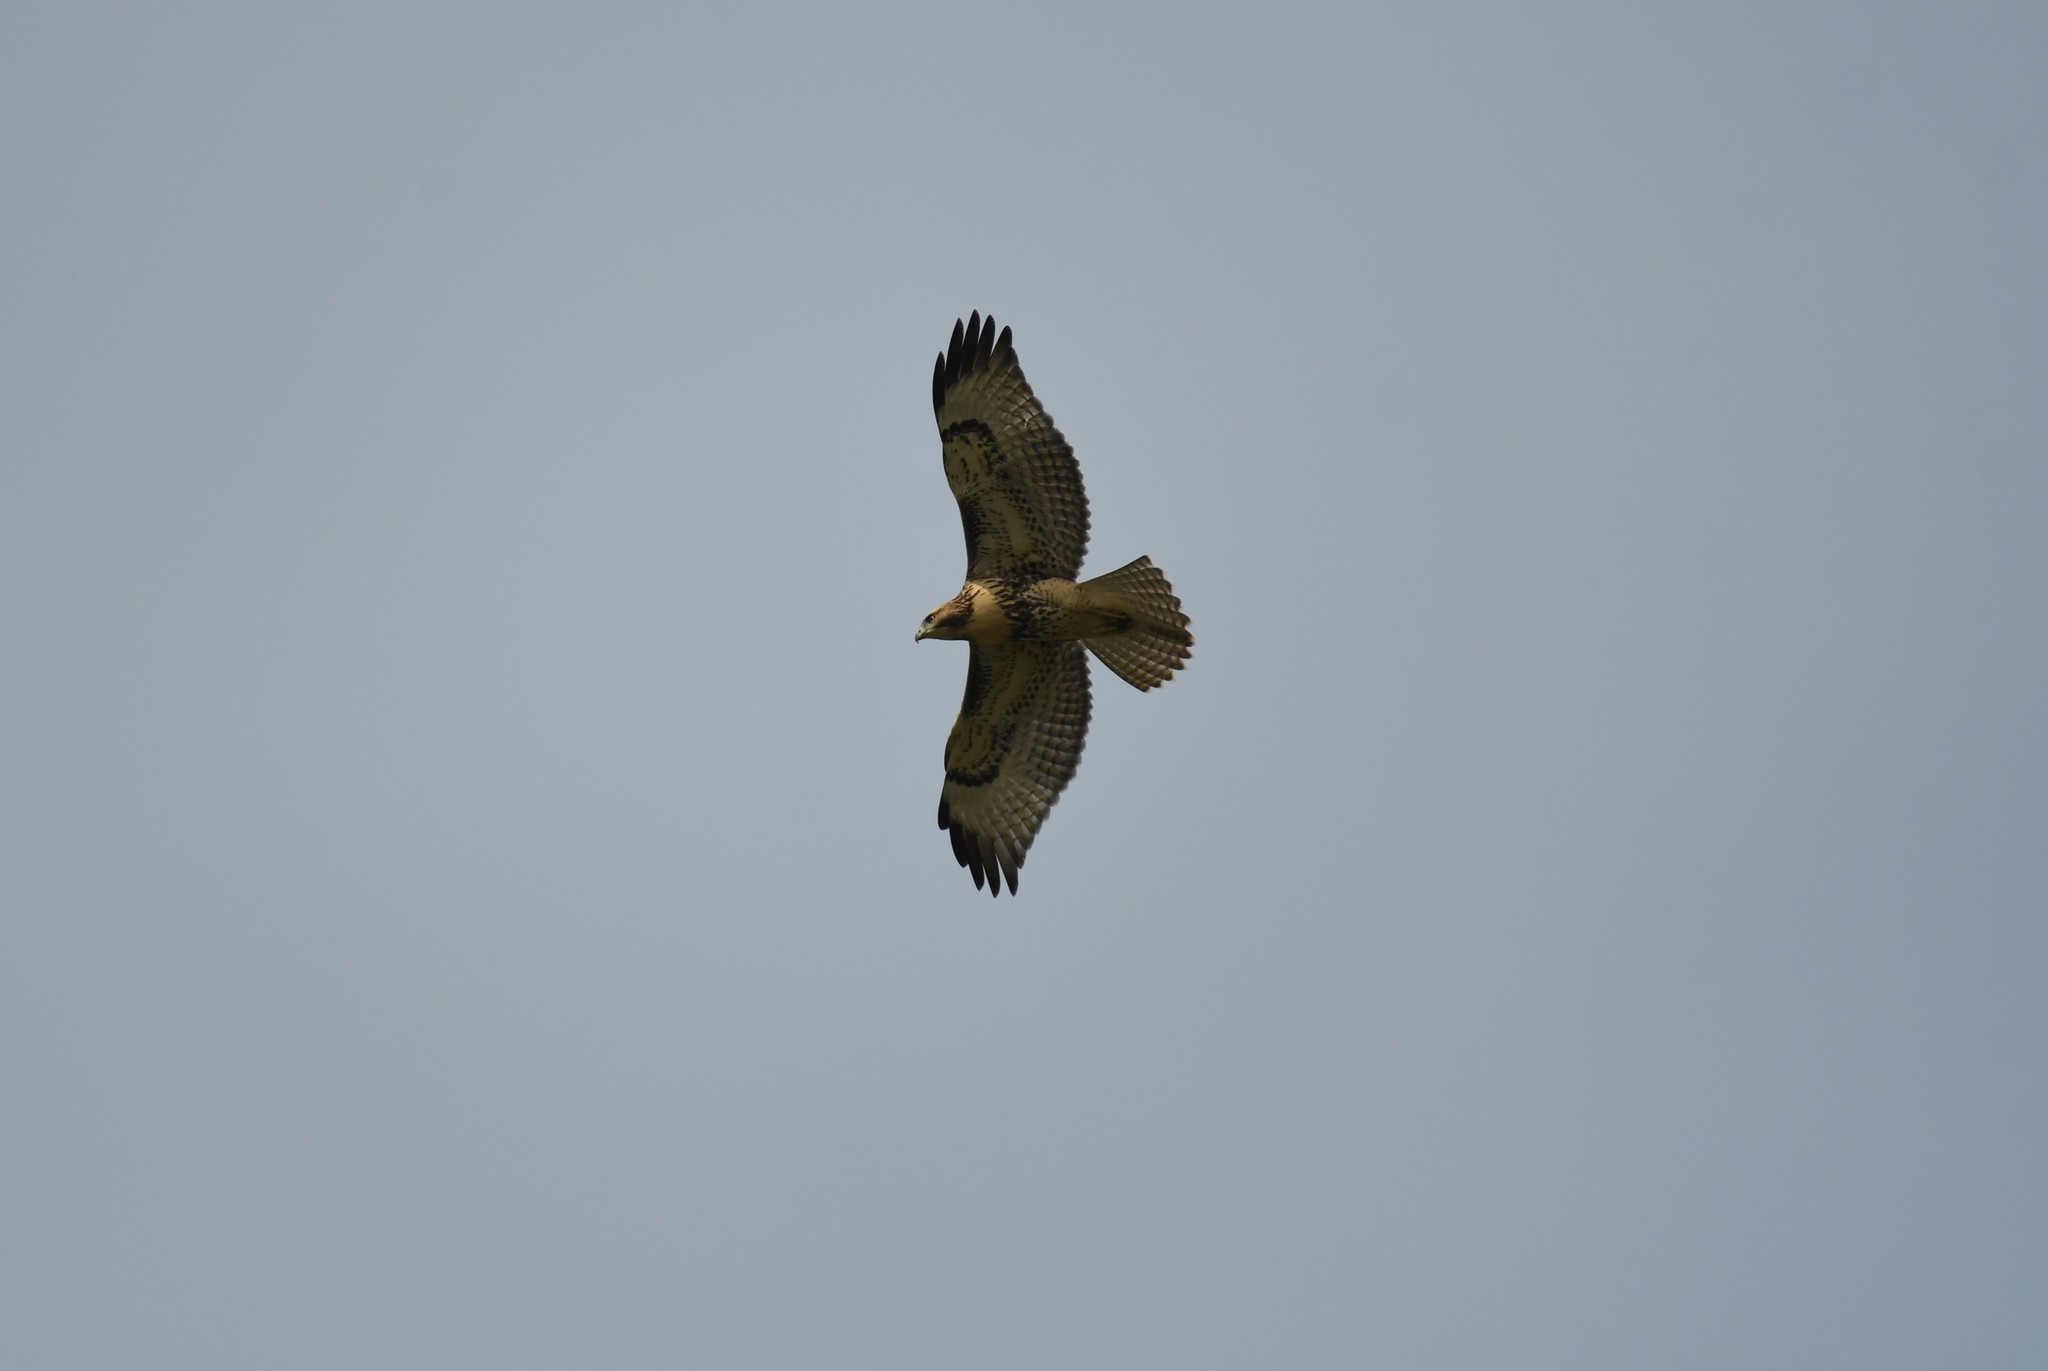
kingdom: Animalia
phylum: Chordata
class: Aves
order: Accipitriformes
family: Accipitridae
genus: Buteo
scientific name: Buteo jamaicensis
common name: Red-tailed hawk
